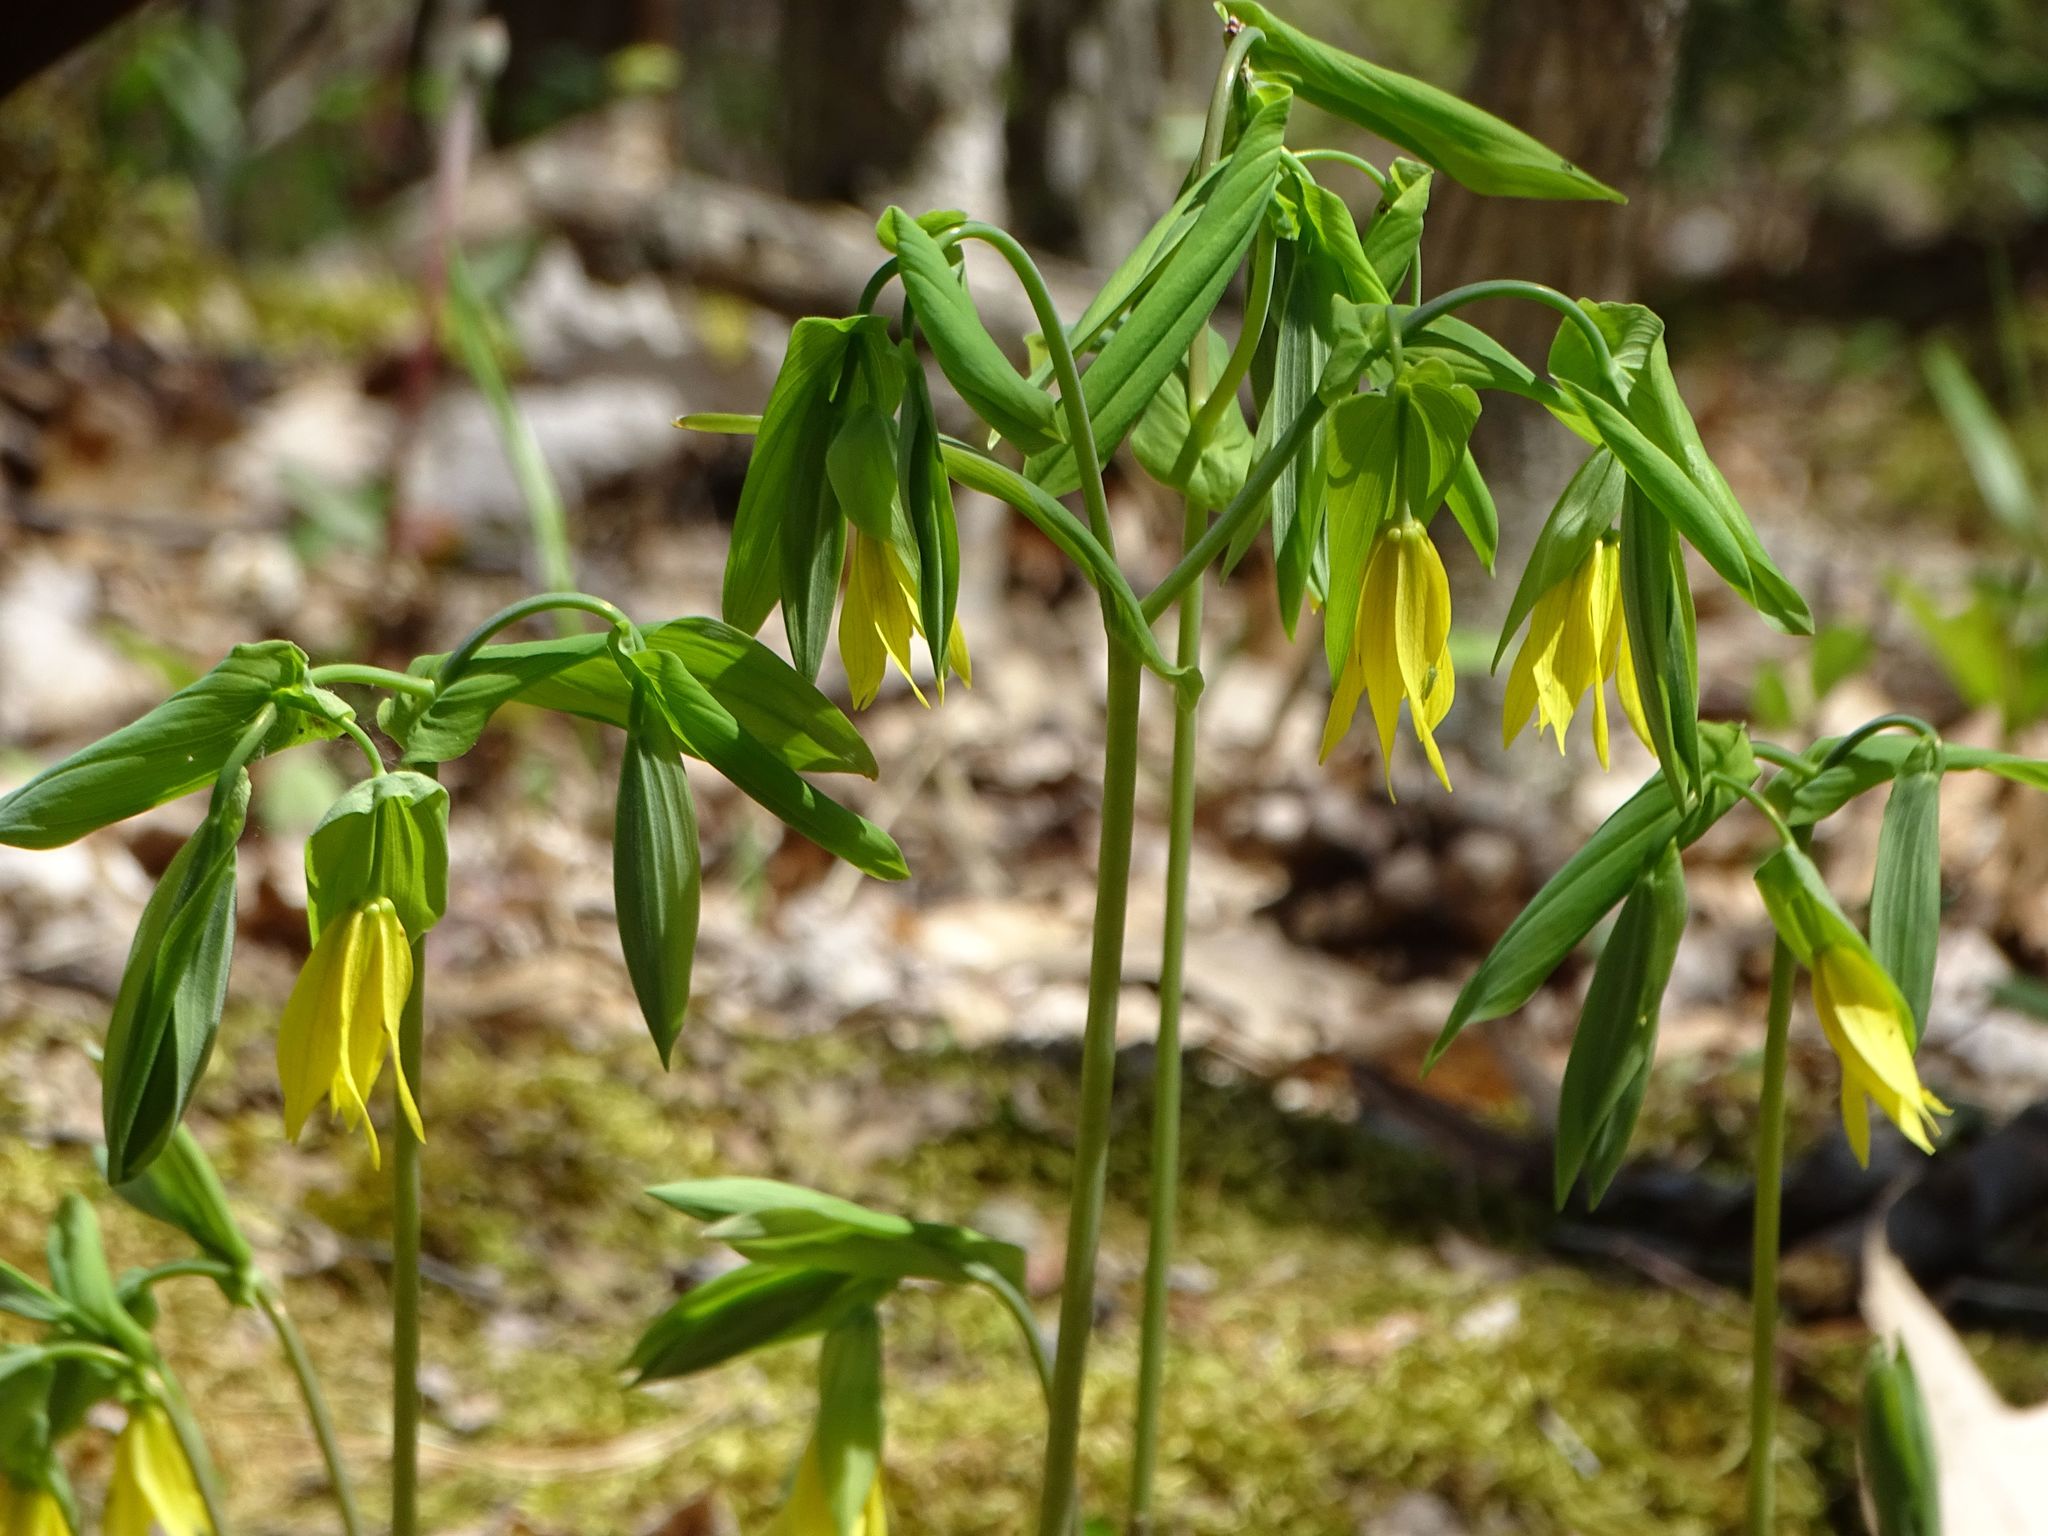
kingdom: Plantae
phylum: Tracheophyta
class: Liliopsida
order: Liliales
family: Colchicaceae
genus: Uvularia
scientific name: Uvularia grandiflora
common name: Bellwort
